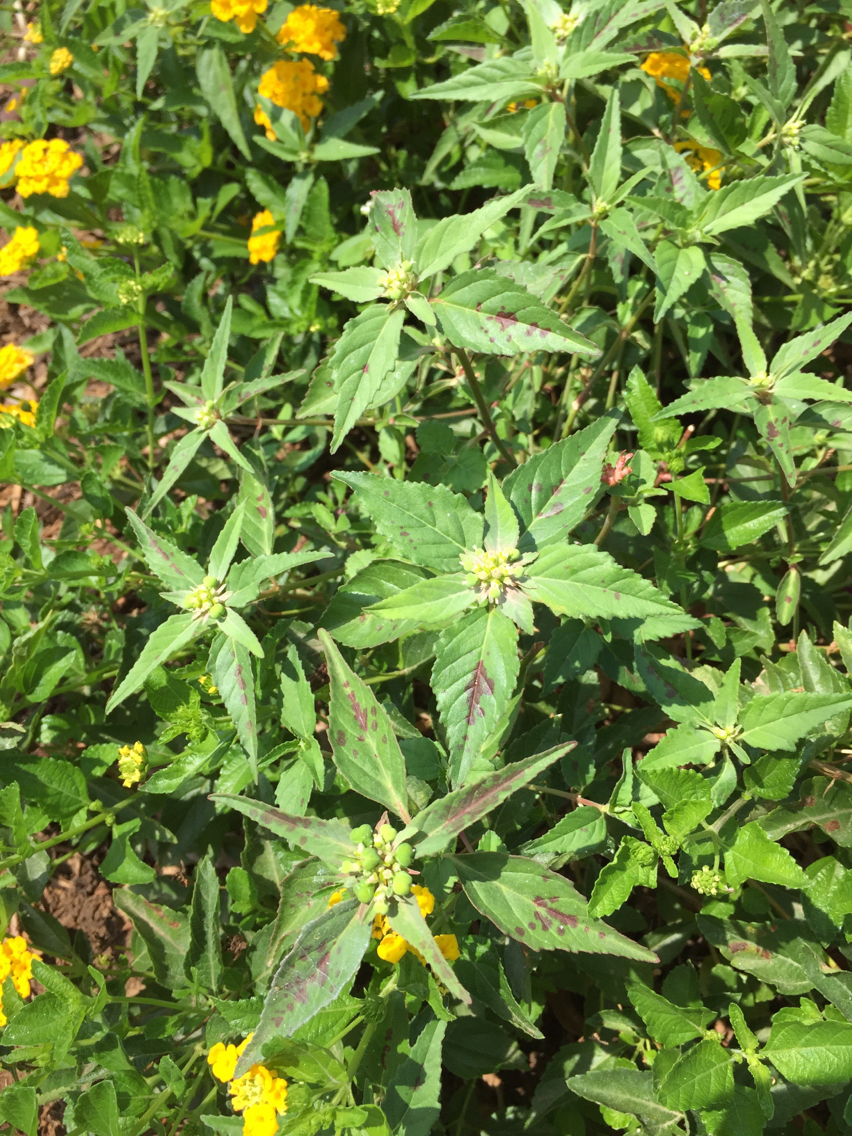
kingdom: Plantae
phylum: Tracheophyta
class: Magnoliopsida
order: Malpighiales
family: Euphorbiaceae
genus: Euphorbia
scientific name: Euphorbia dentata
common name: Dentate spurge
